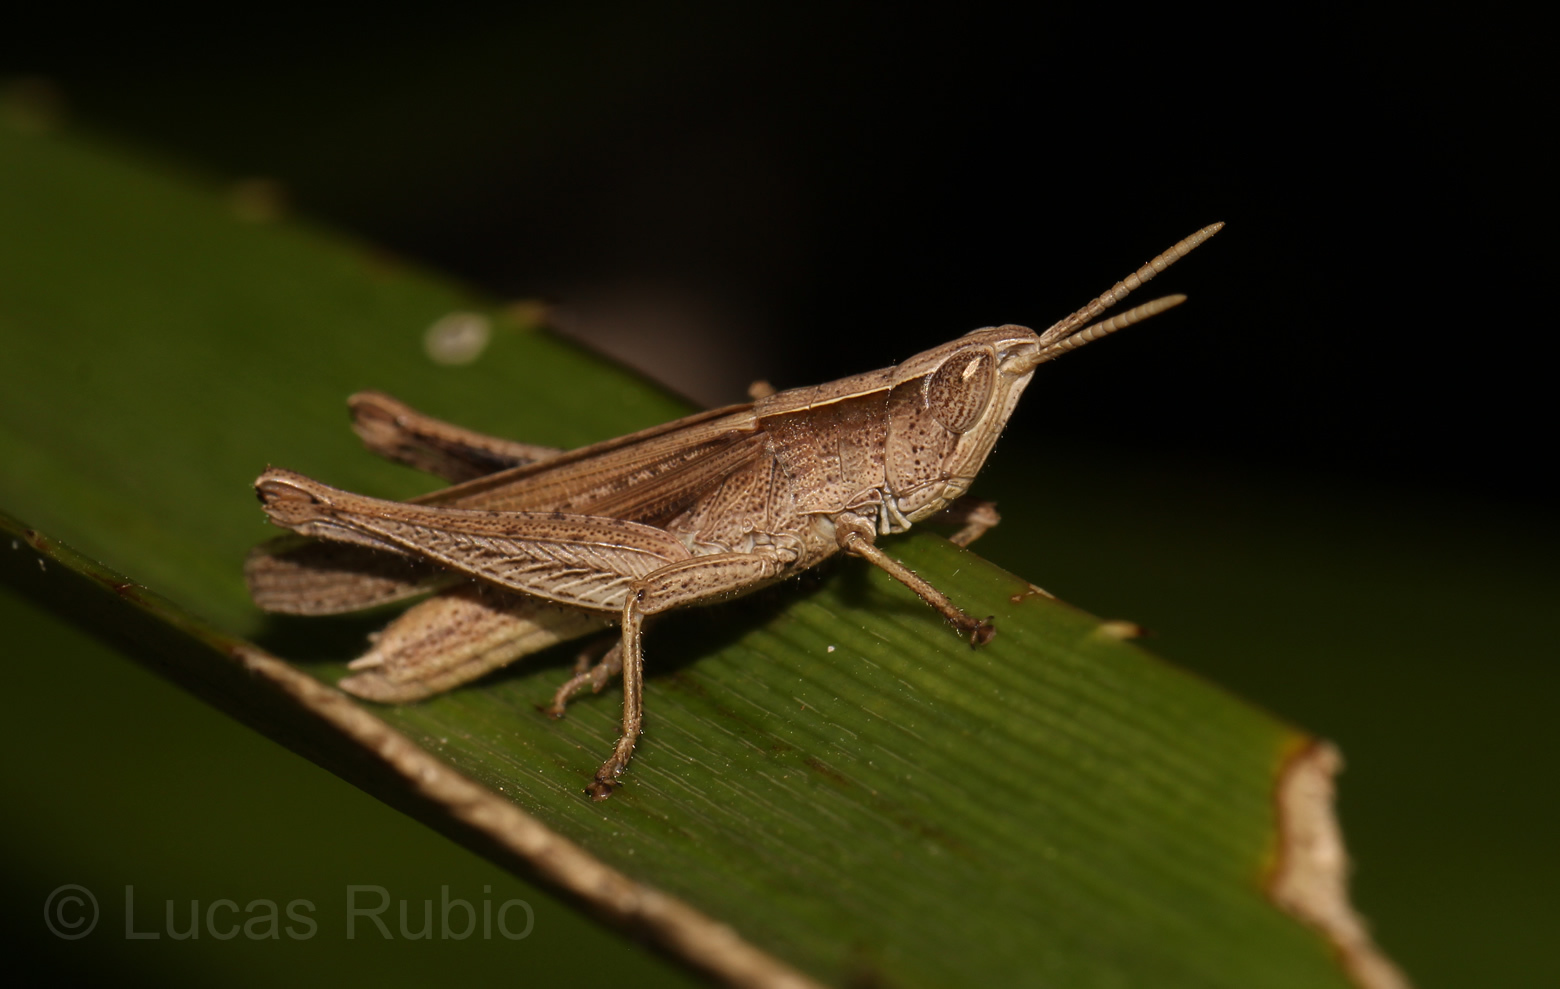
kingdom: Animalia
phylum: Arthropoda
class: Insecta
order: Orthoptera
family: Acrididae
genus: Laplatacris
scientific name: Laplatacris dispar
